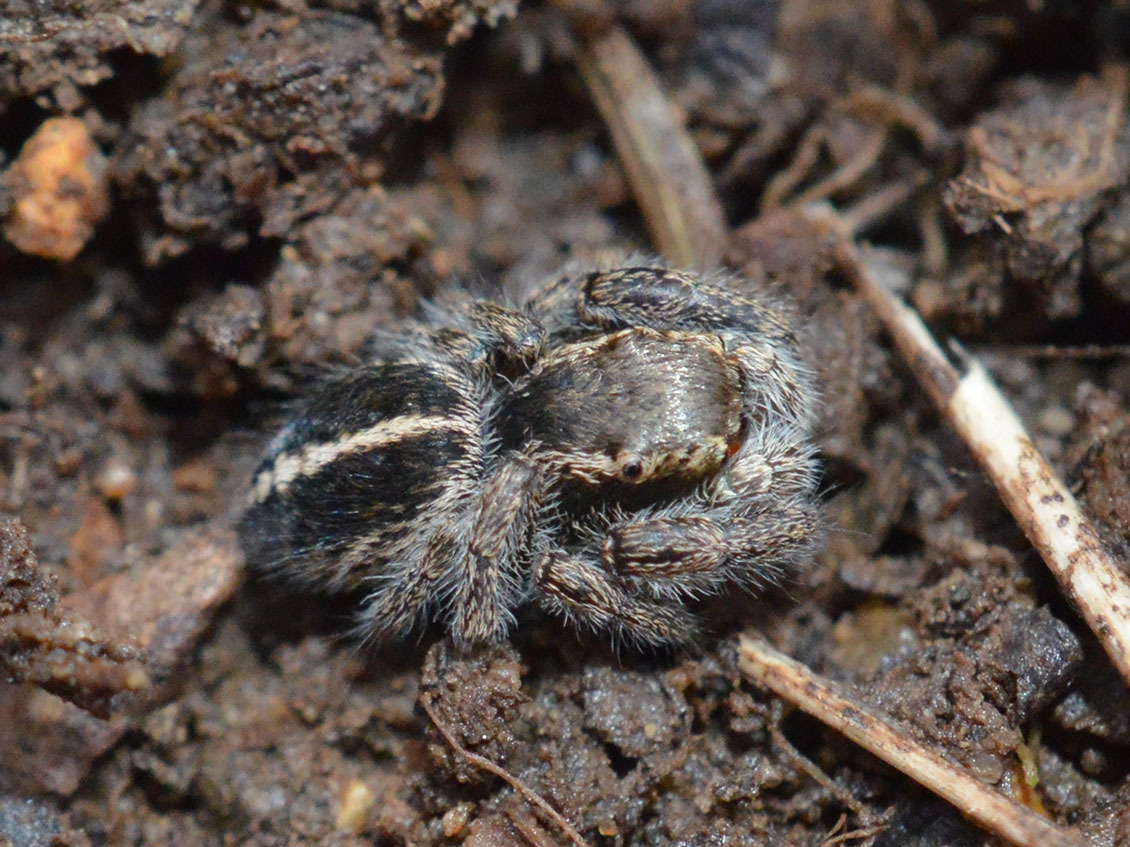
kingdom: Animalia
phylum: Arthropoda
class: Arachnida
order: Araneae
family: Salticidae
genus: Pellenes
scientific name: Pellenes seriatus
